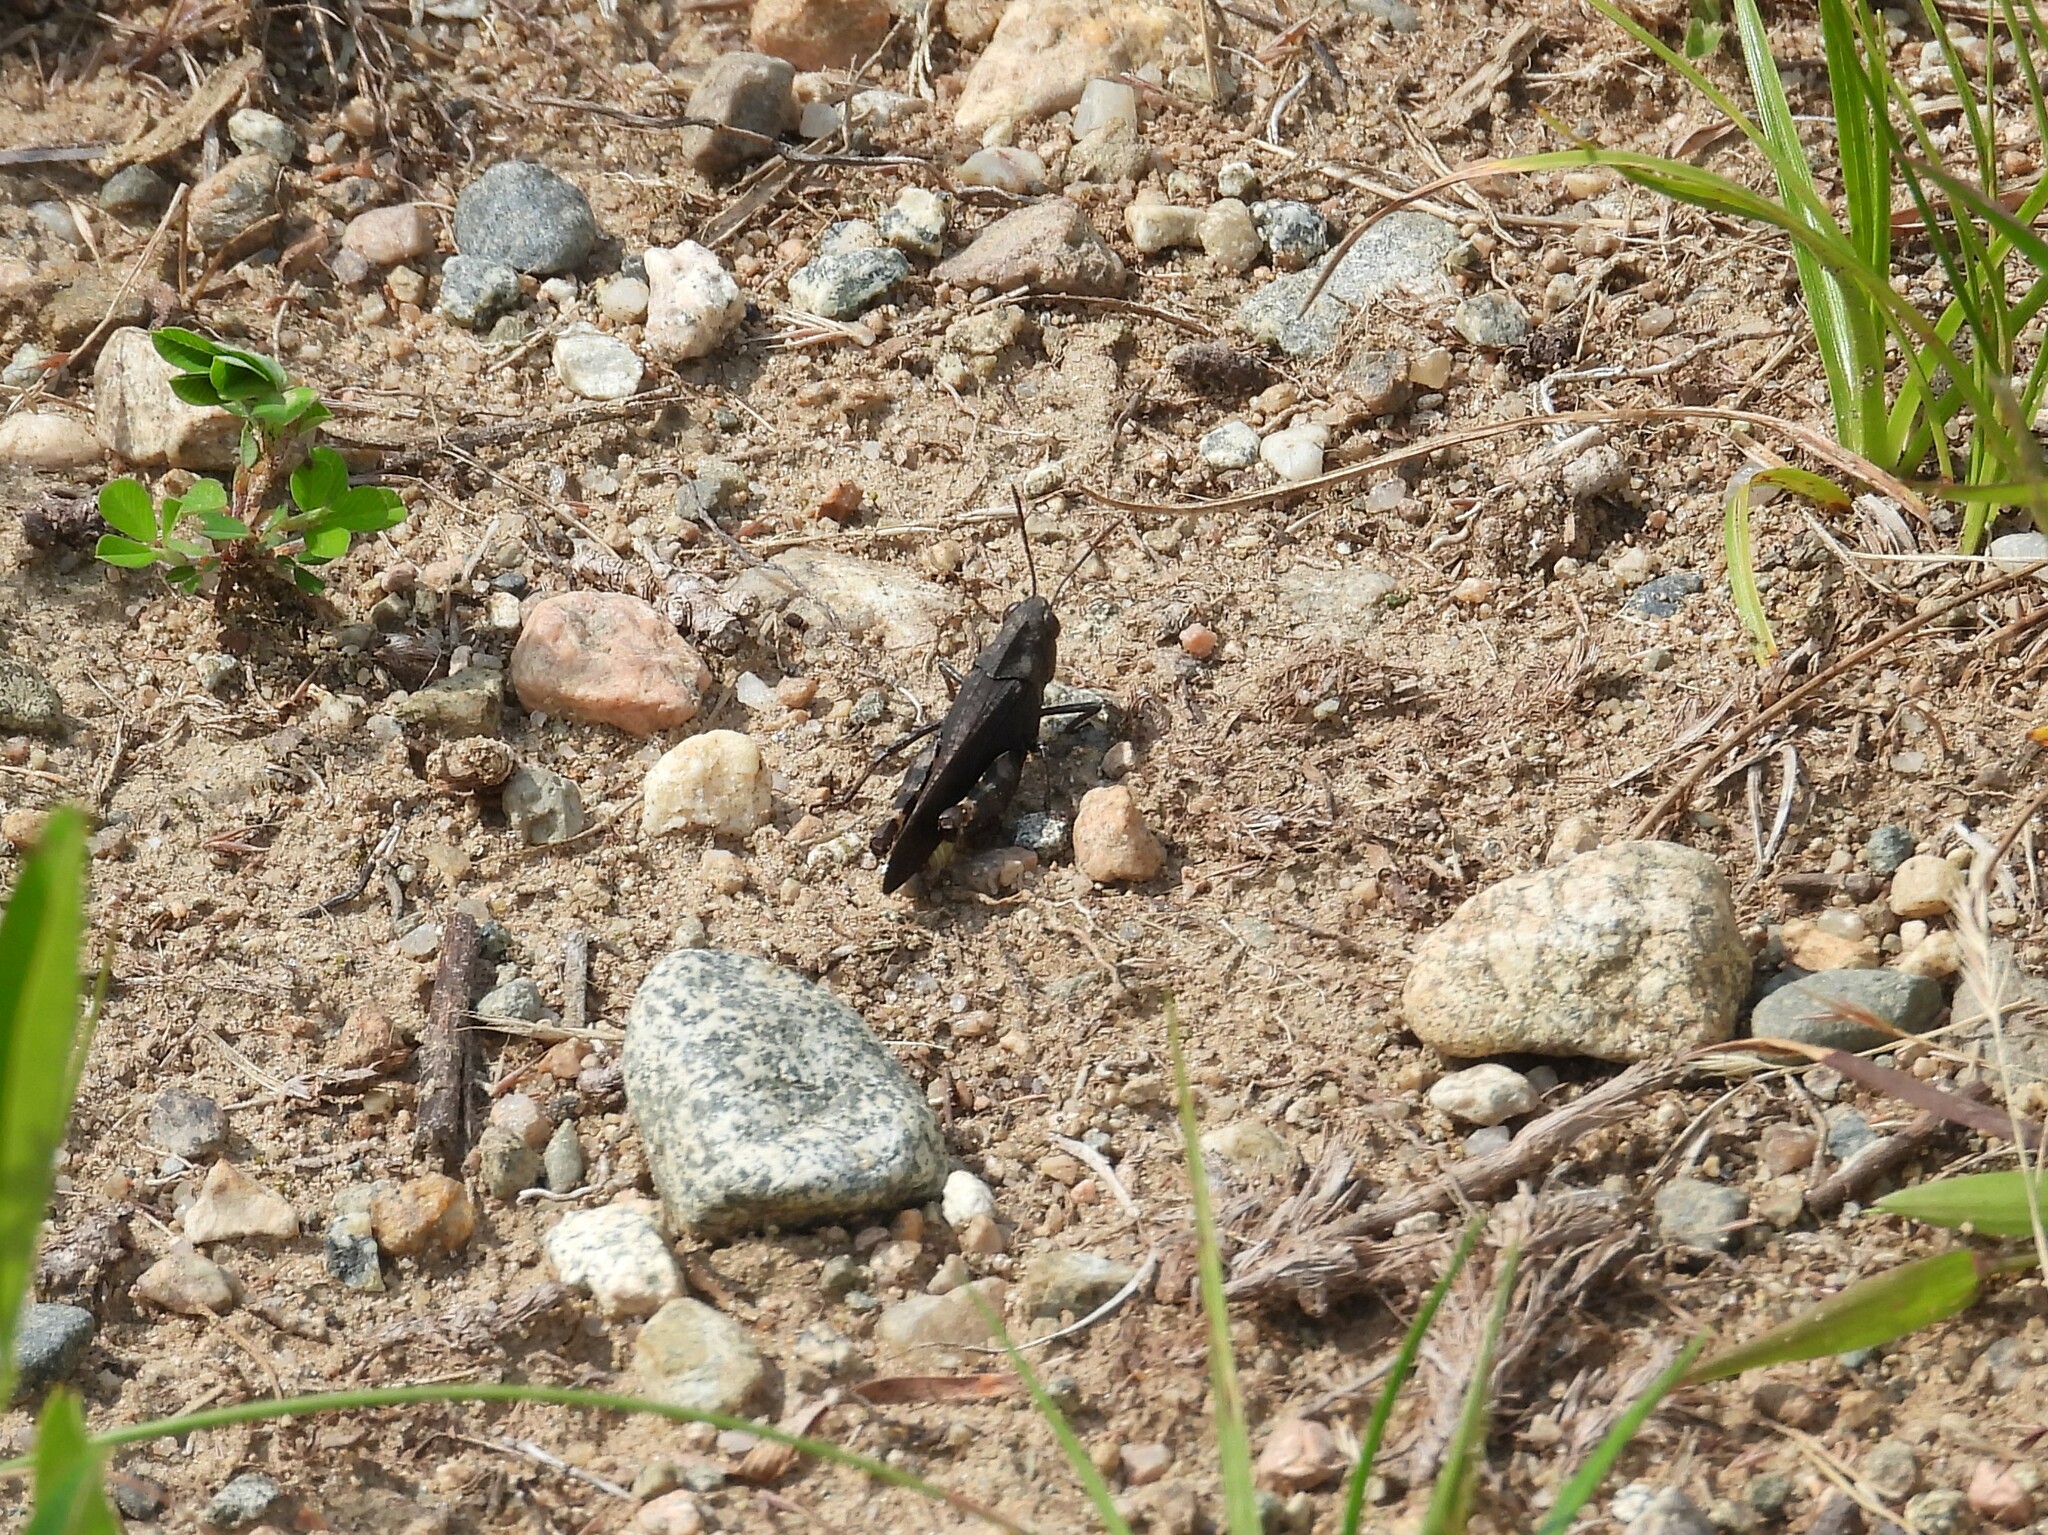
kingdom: Animalia
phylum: Arthropoda
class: Insecta
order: Orthoptera
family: Acrididae
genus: Arphia
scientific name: Arphia sulphurea
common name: Spring yellow-winged locust
